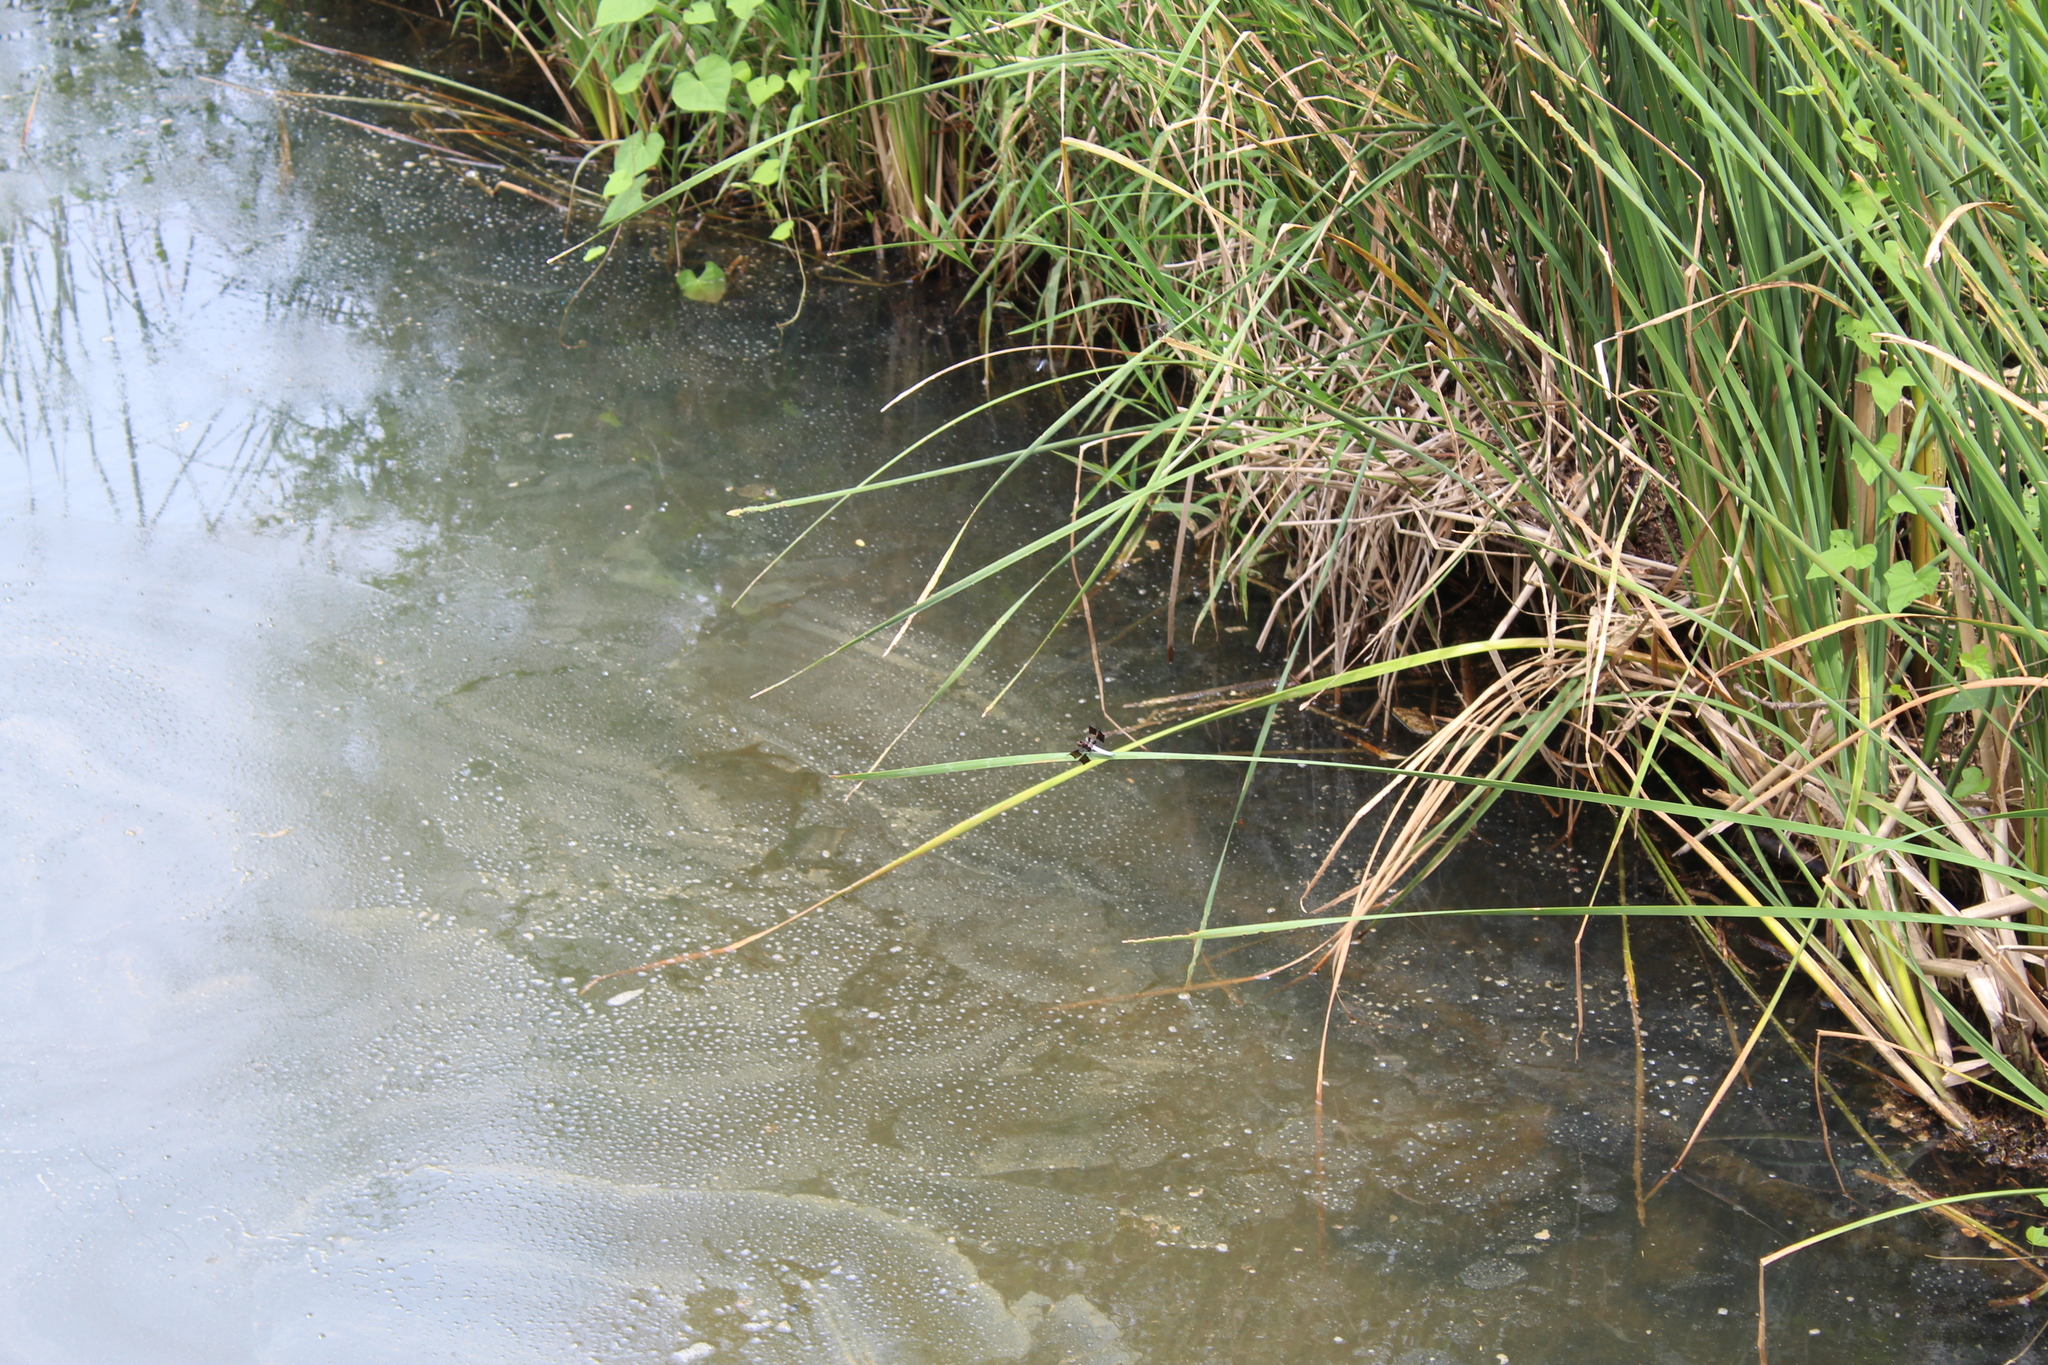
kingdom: Animalia
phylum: Arthropoda
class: Insecta
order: Odonata
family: Libellulidae
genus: Plathemis
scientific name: Plathemis lydia
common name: Common whitetail
